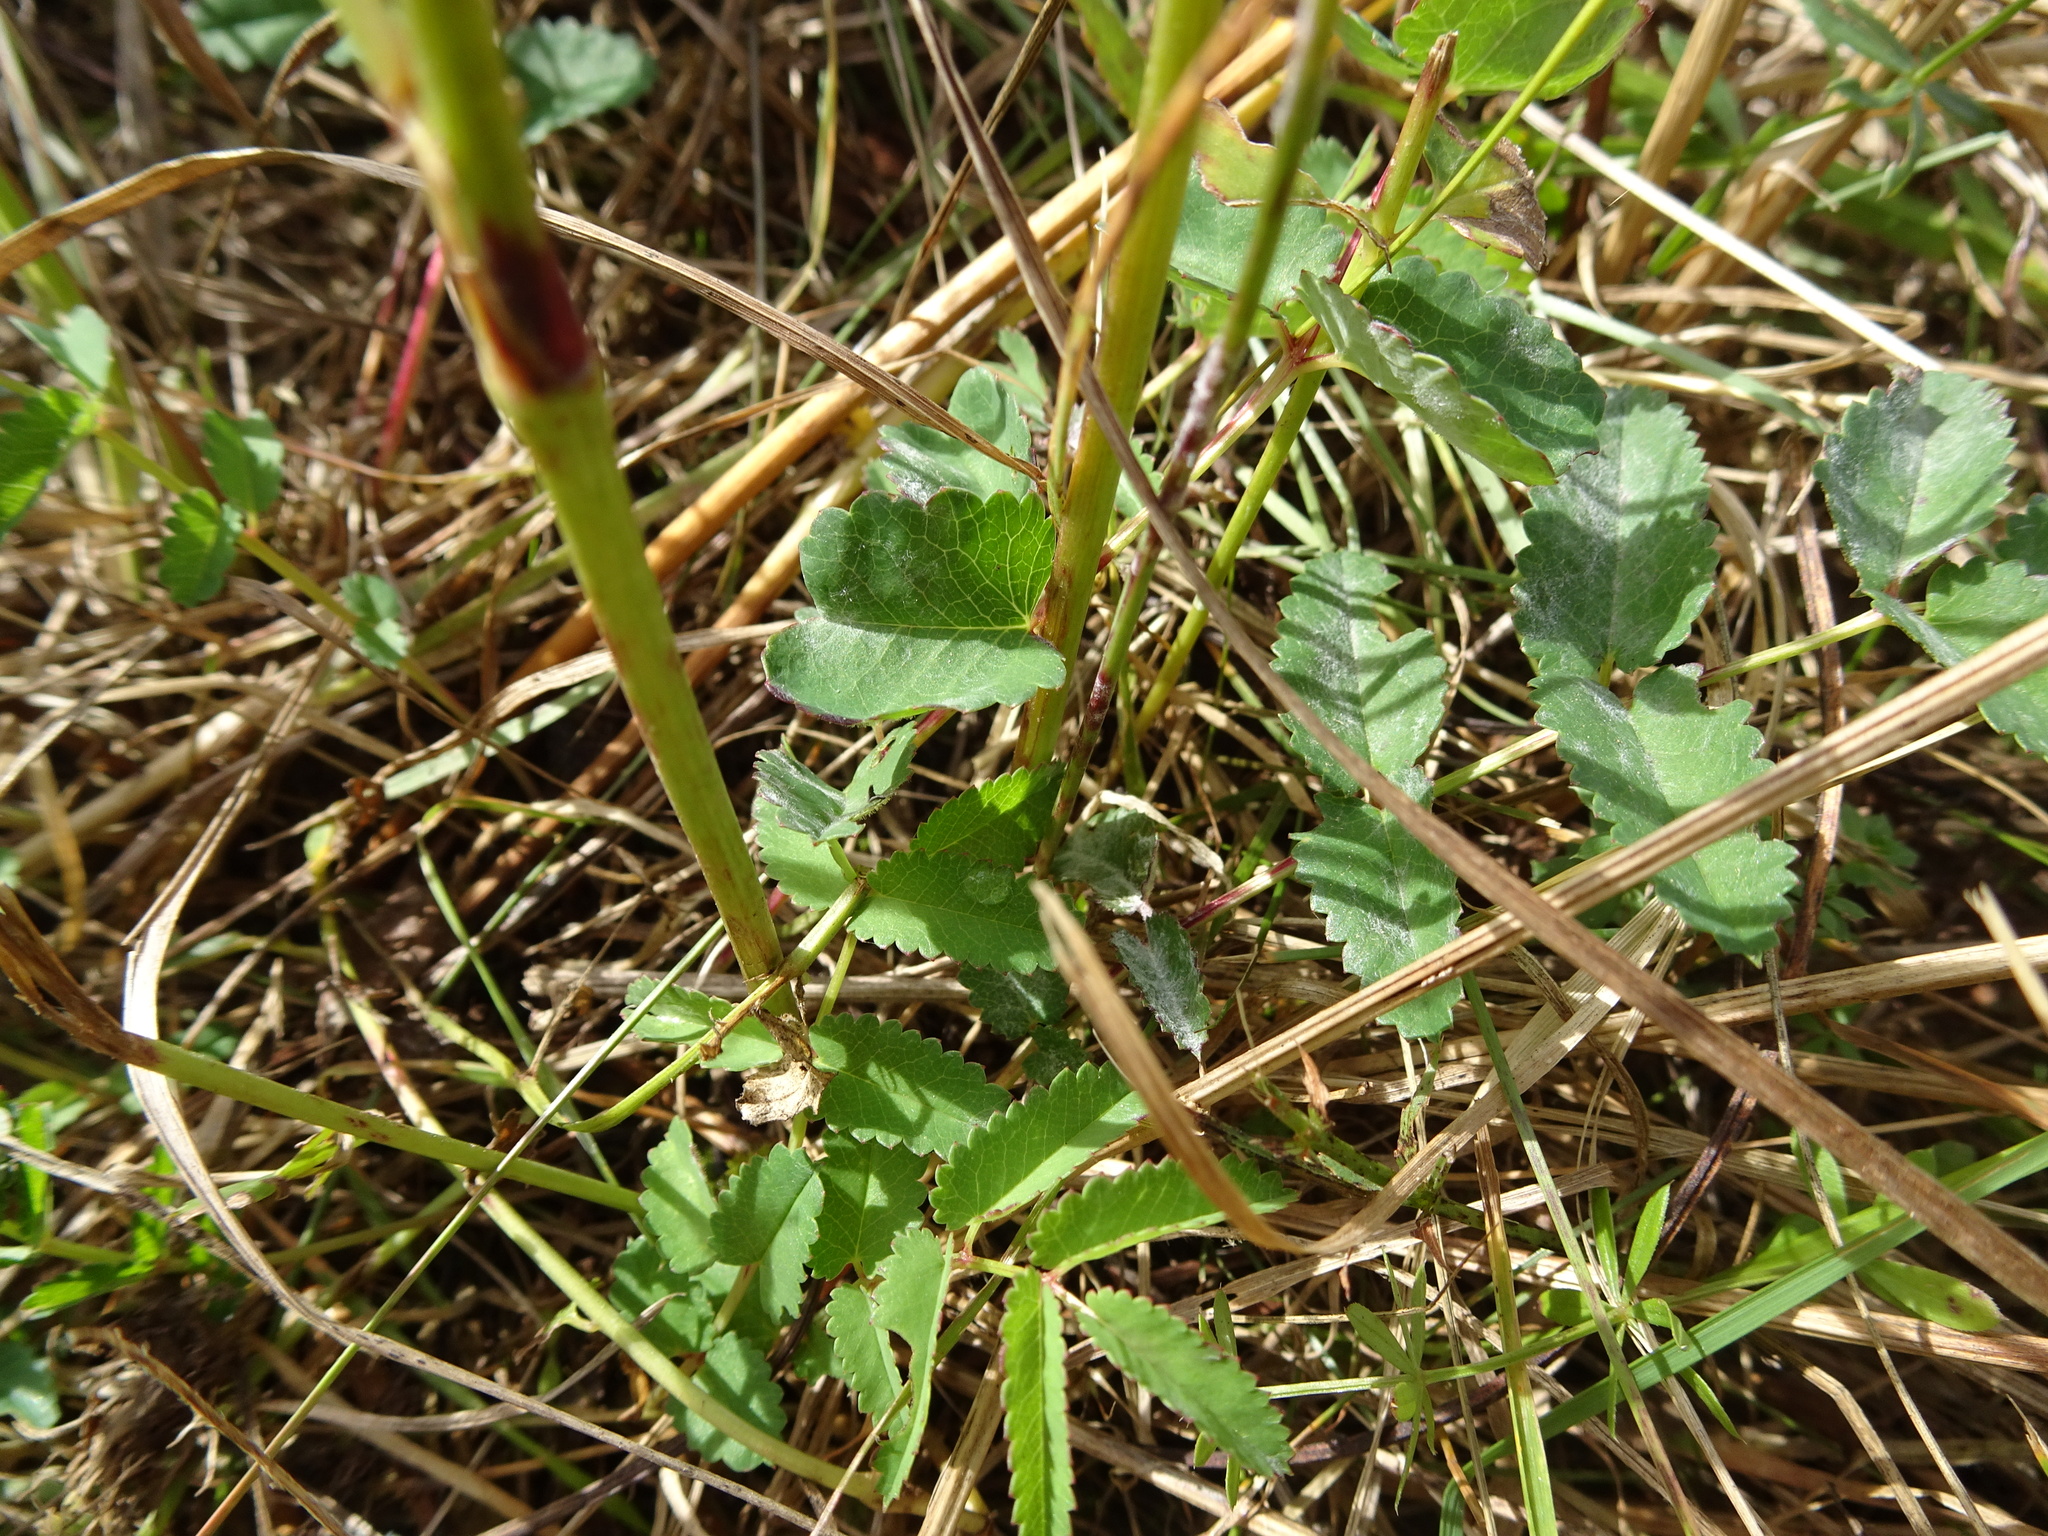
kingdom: Plantae
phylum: Tracheophyta
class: Magnoliopsida
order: Rosales
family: Rosaceae
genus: Sanguisorba
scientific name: Sanguisorba officinalis
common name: Great burnet
